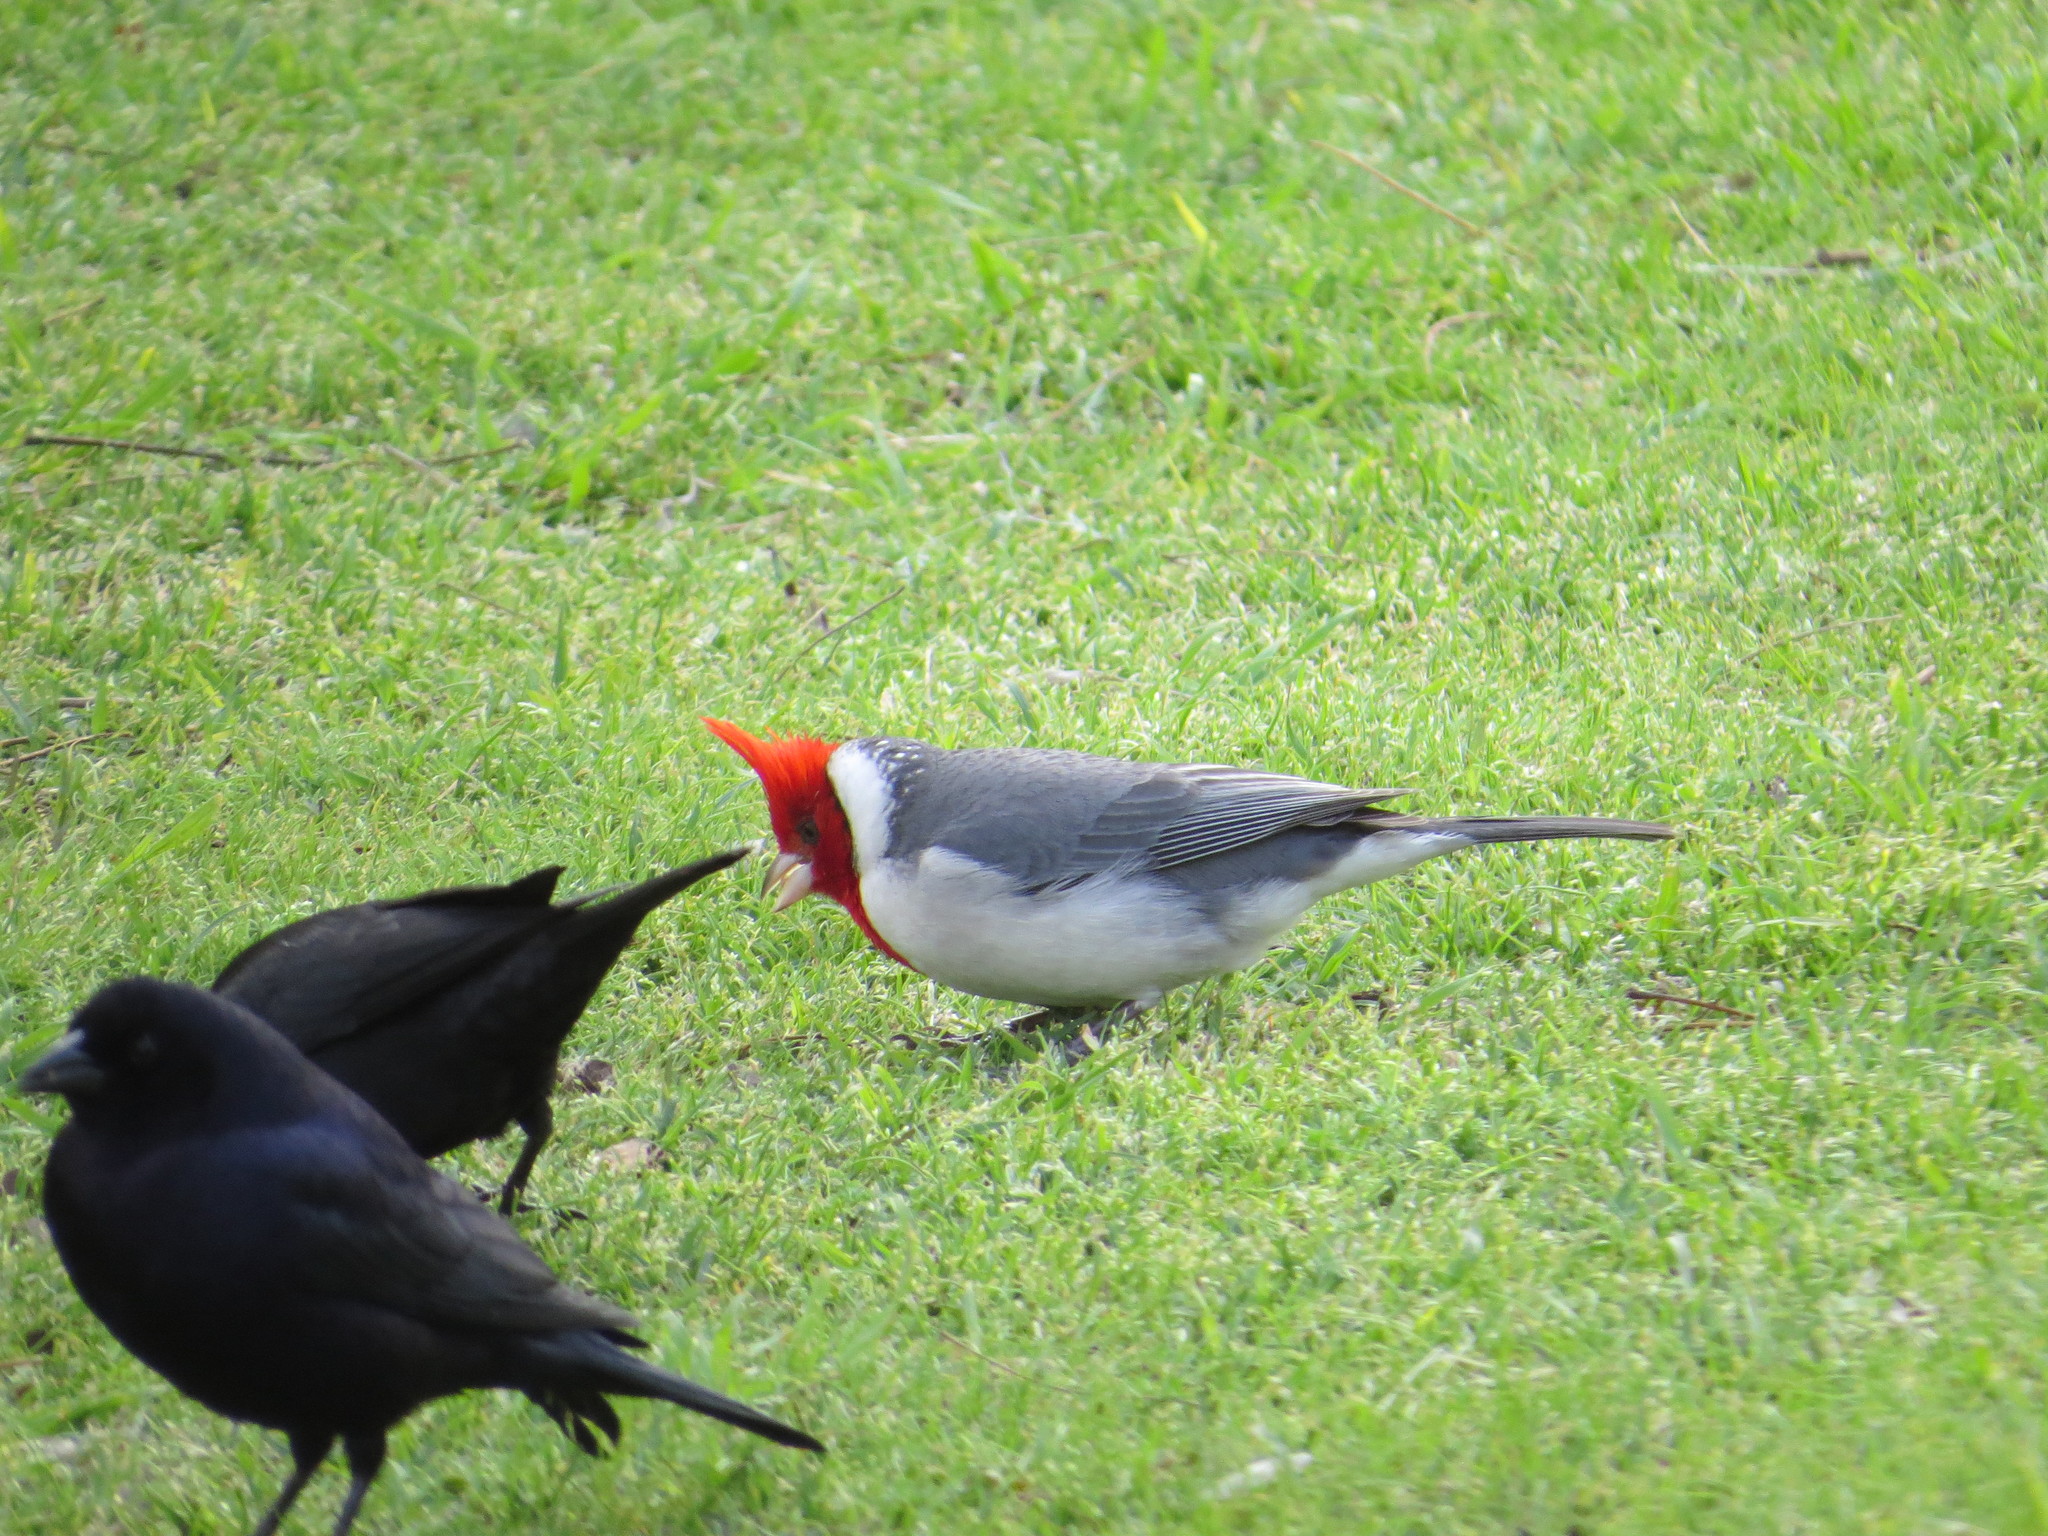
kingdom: Animalia
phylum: Chordata
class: Aves
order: Passeriformes
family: Thraupidae
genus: Paroaria
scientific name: Paroaria coronata
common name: Red-crested cardinal
